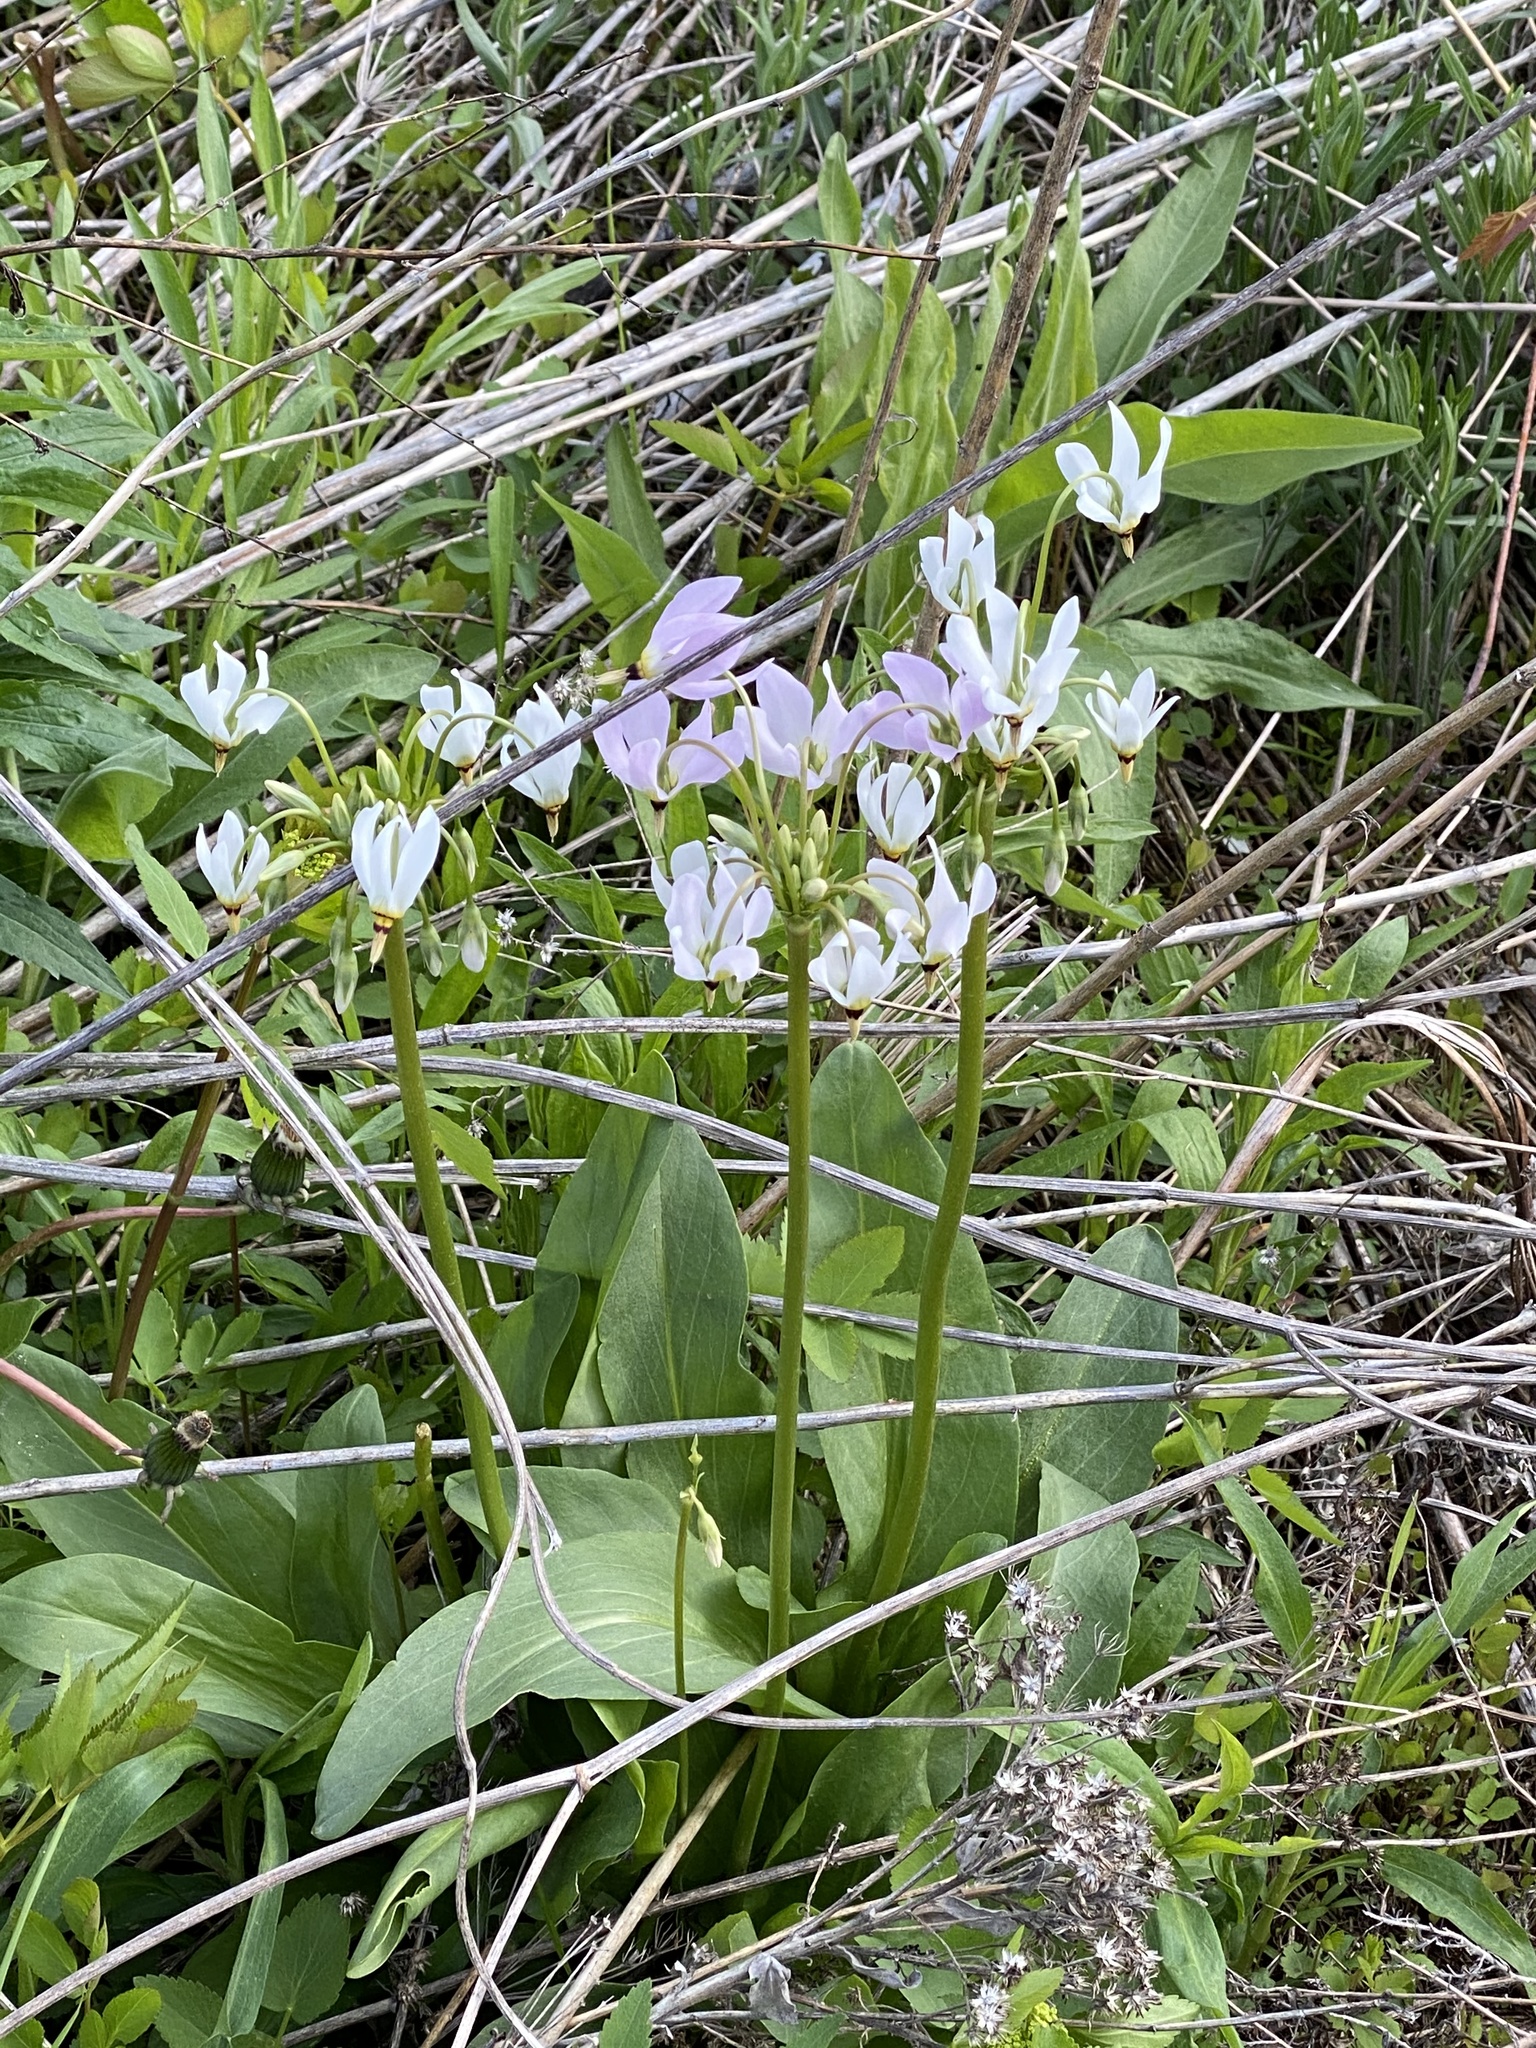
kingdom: Plantae
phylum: Tracheophyta
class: Magnoliopsida
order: Ericales
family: Primulaceae
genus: Dodecatheon
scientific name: Dodecatheon meadia
